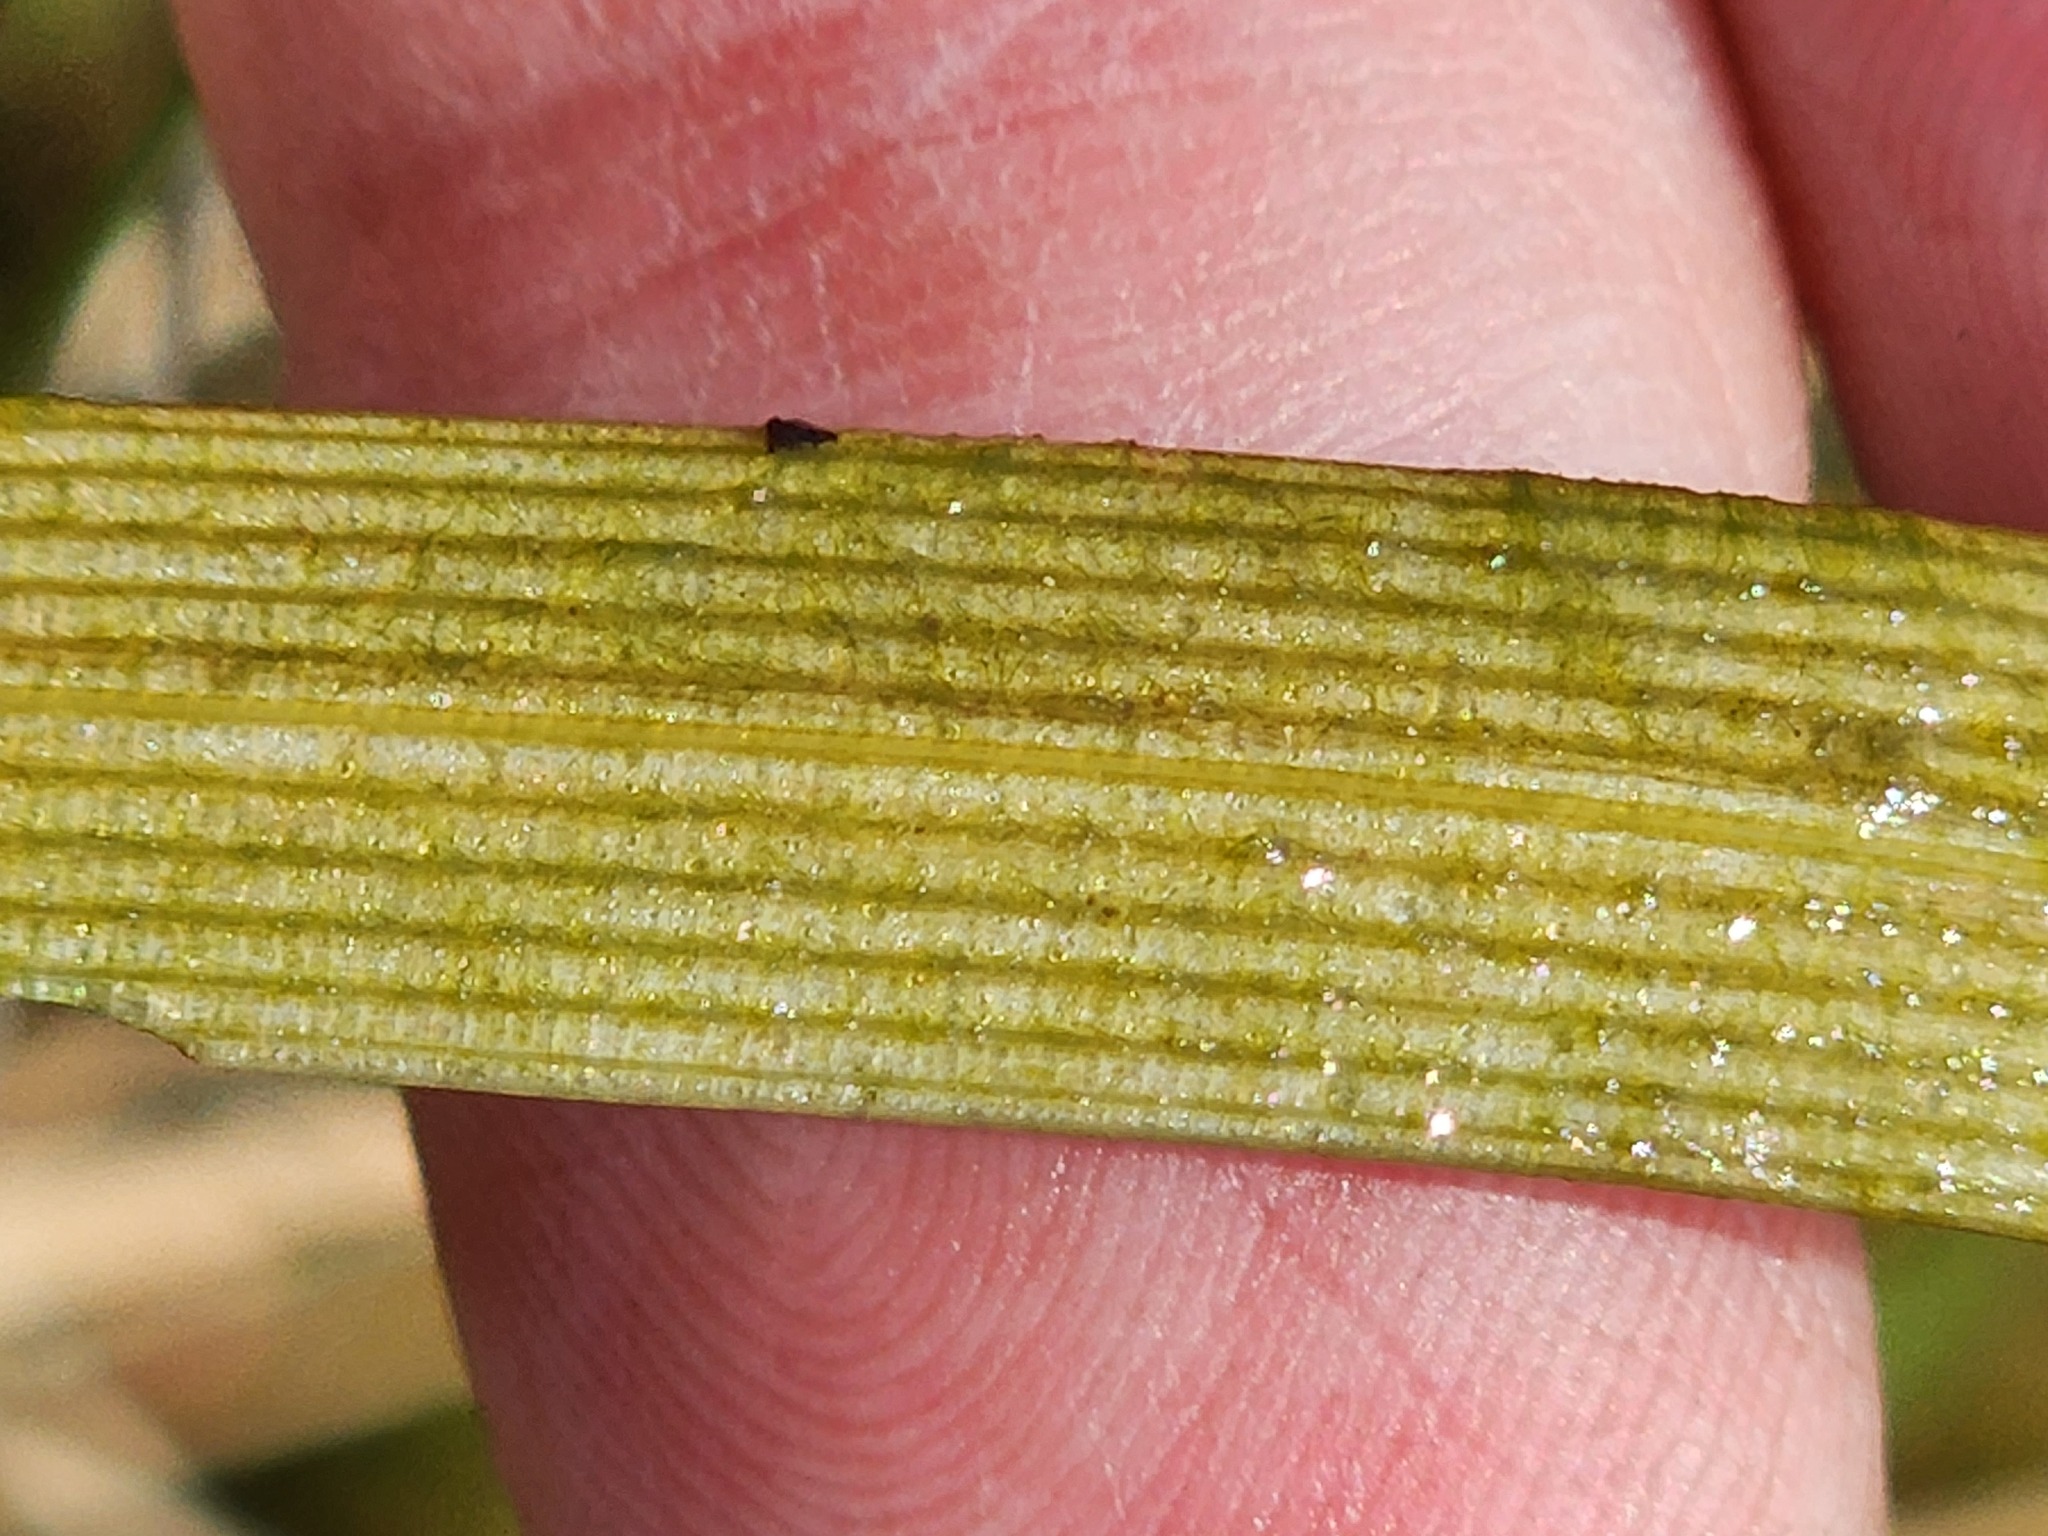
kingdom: Plantae
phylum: Tracheophyta
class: Liliopsida
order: Poales
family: Typhaceae
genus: Sparganium
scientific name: Sparganium fluctuans
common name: Floating burreed
